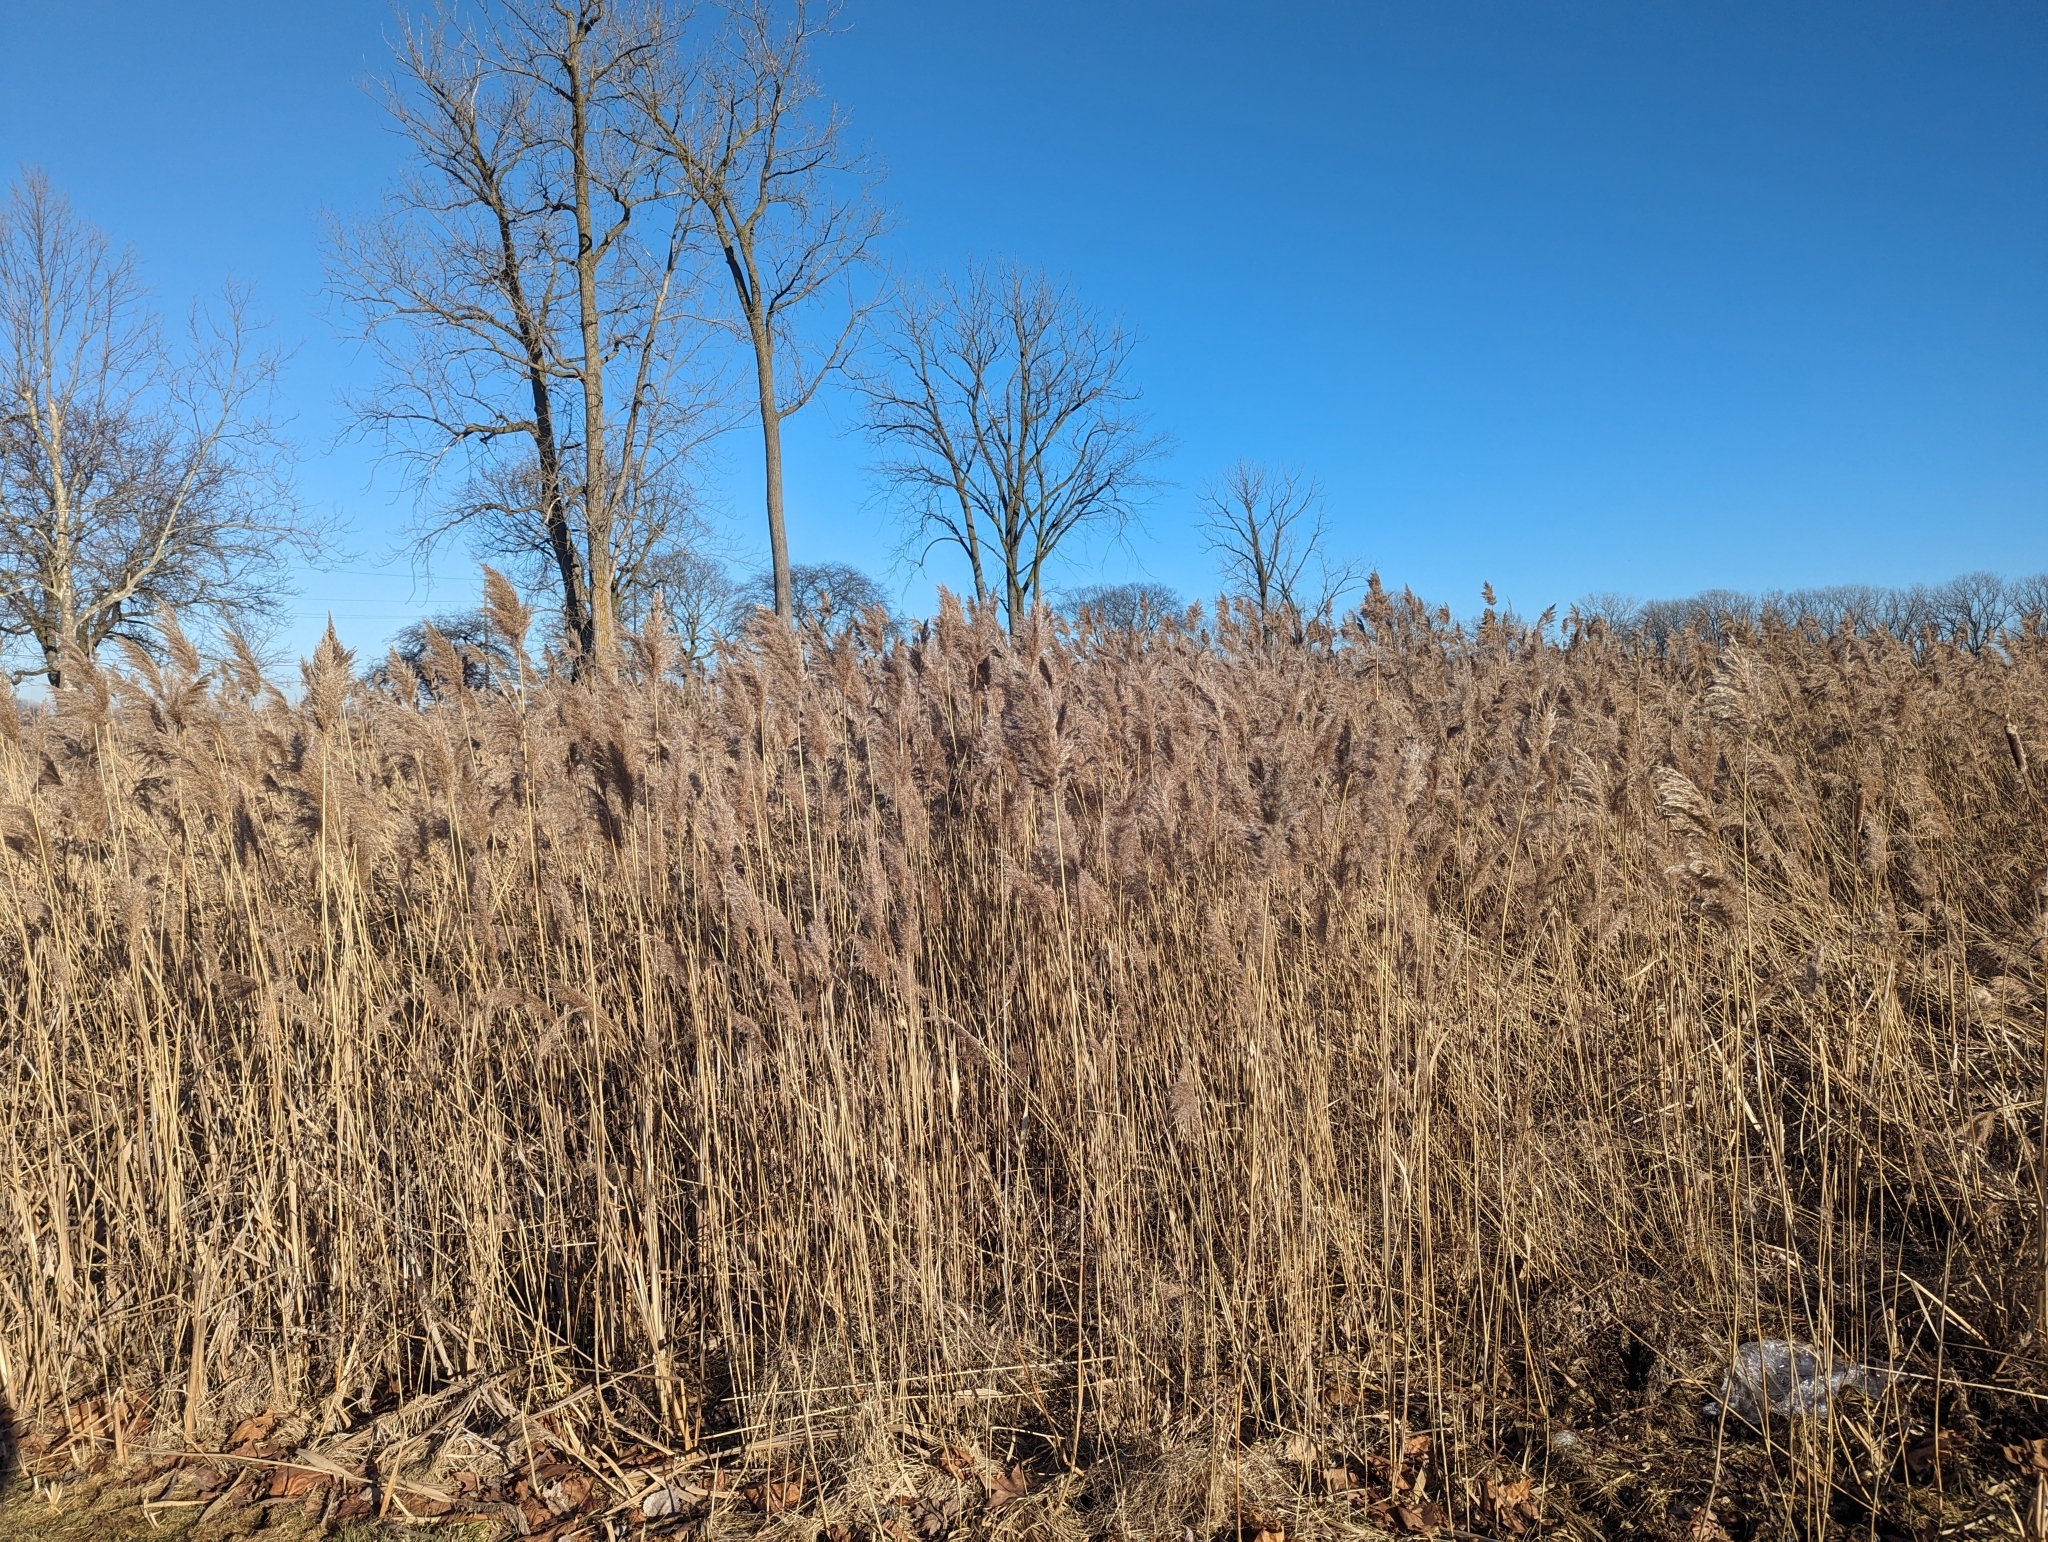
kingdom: Plantae
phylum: Tracheophyta
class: Liliopsida
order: Poales
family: Poaceae
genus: Phragmites
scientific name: Phragmites australis
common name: Common reed
